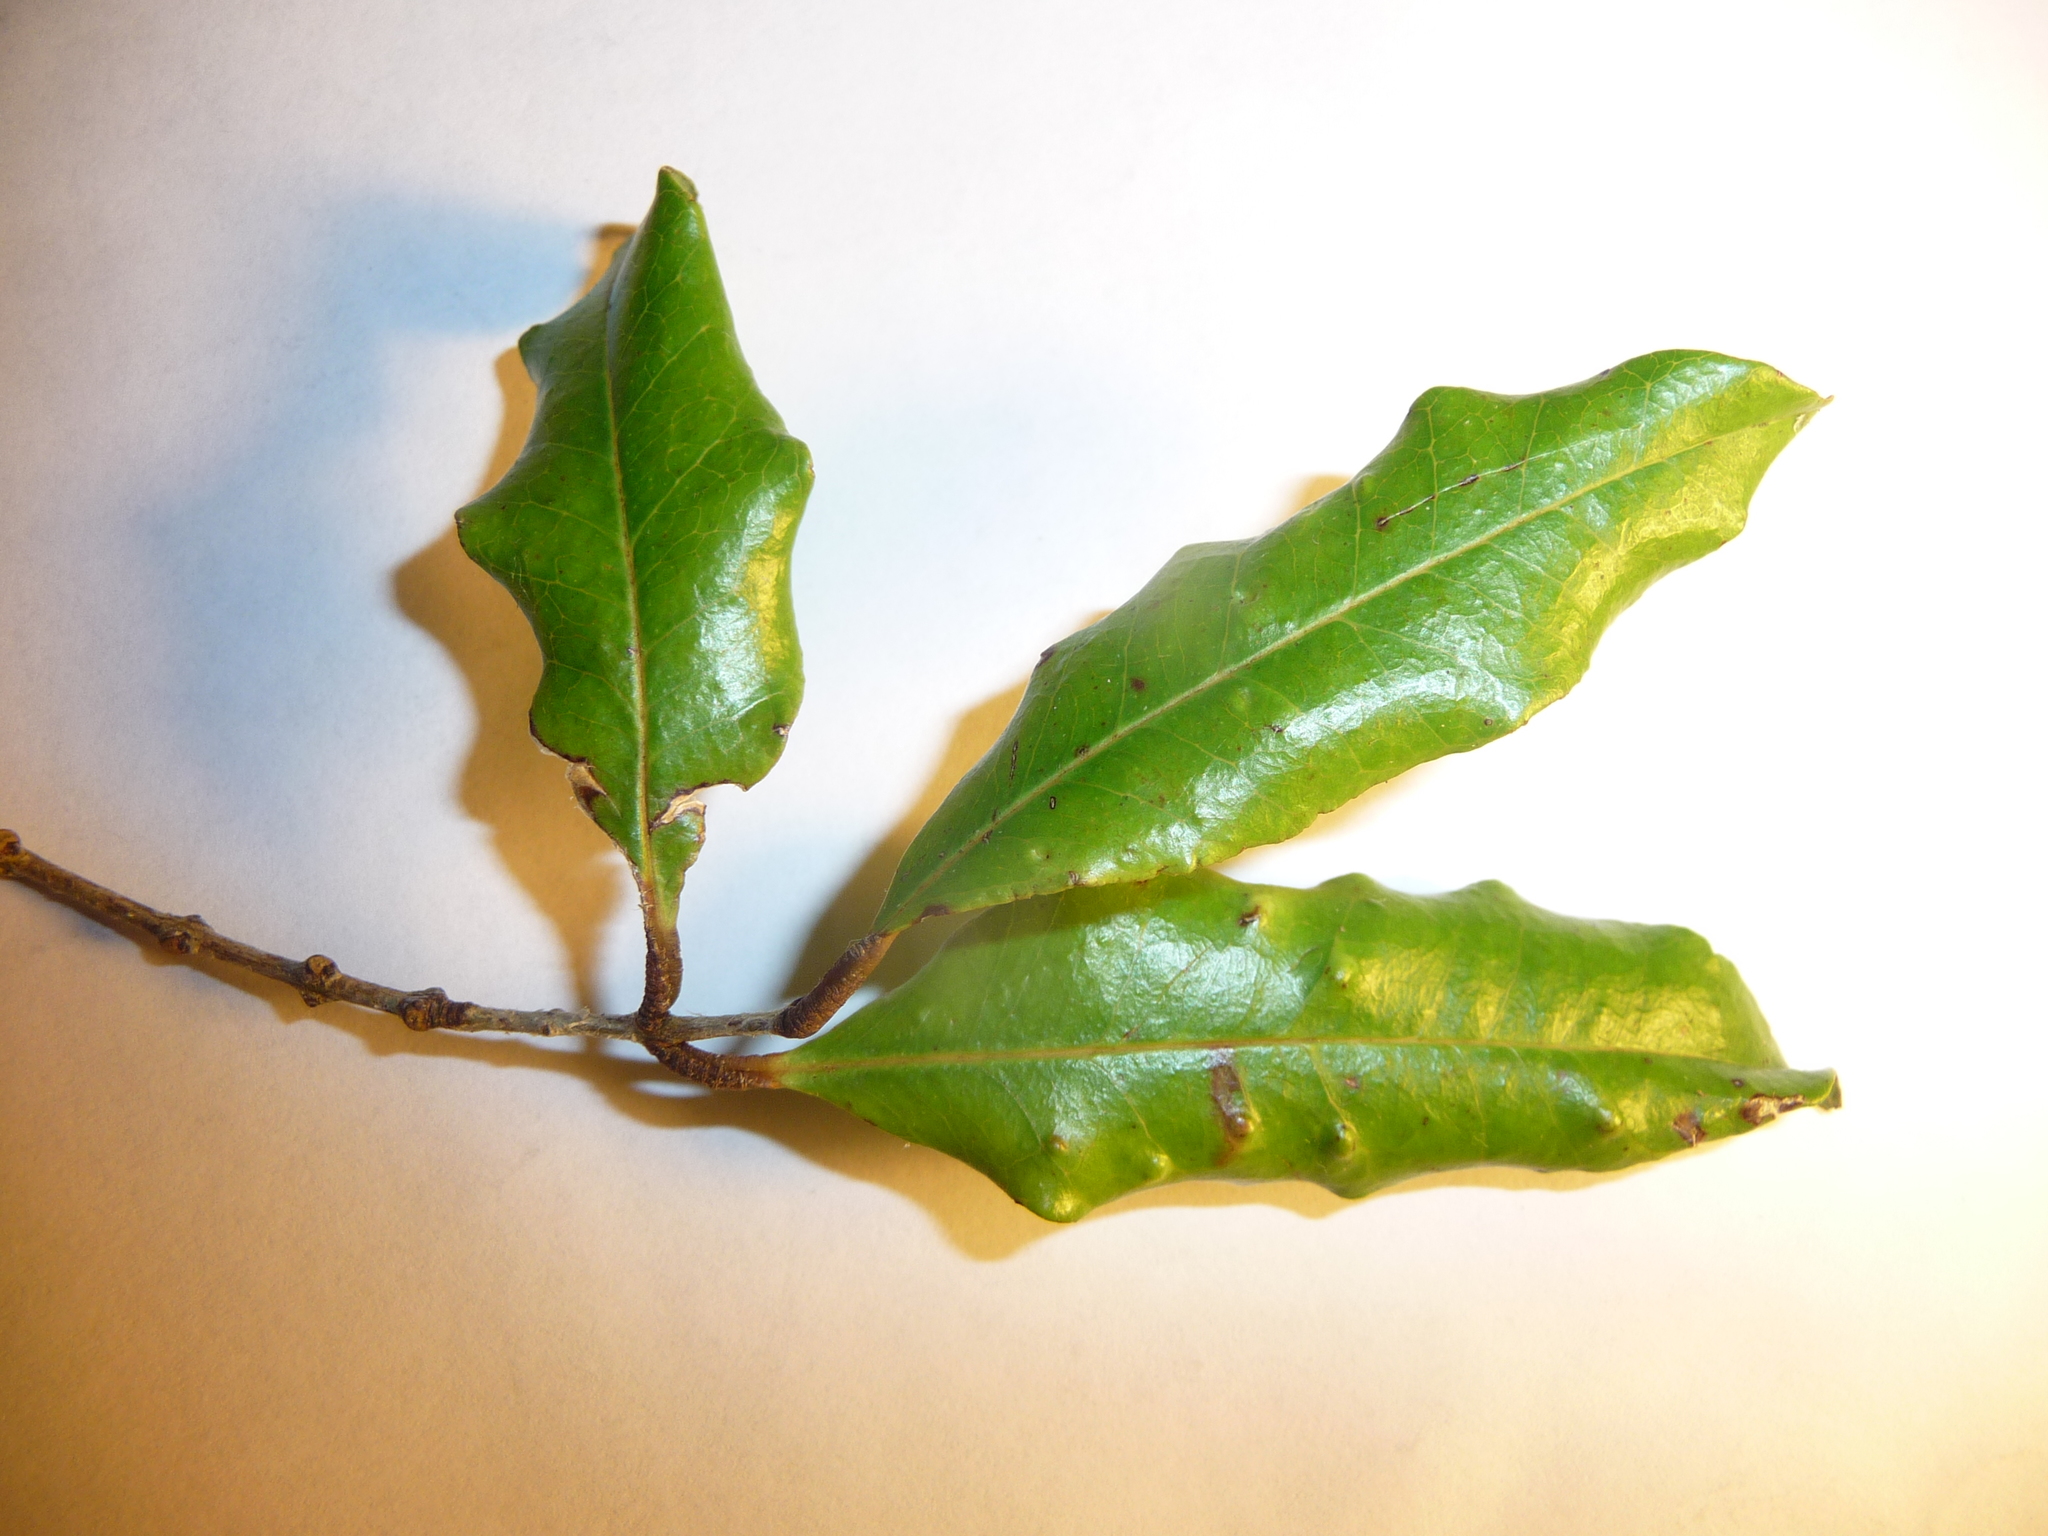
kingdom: Plantae
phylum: Tracheophyta
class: Magnoliopsida
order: Myrtales
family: Myrtaceae
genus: Syzygium
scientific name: Syzygium maire
